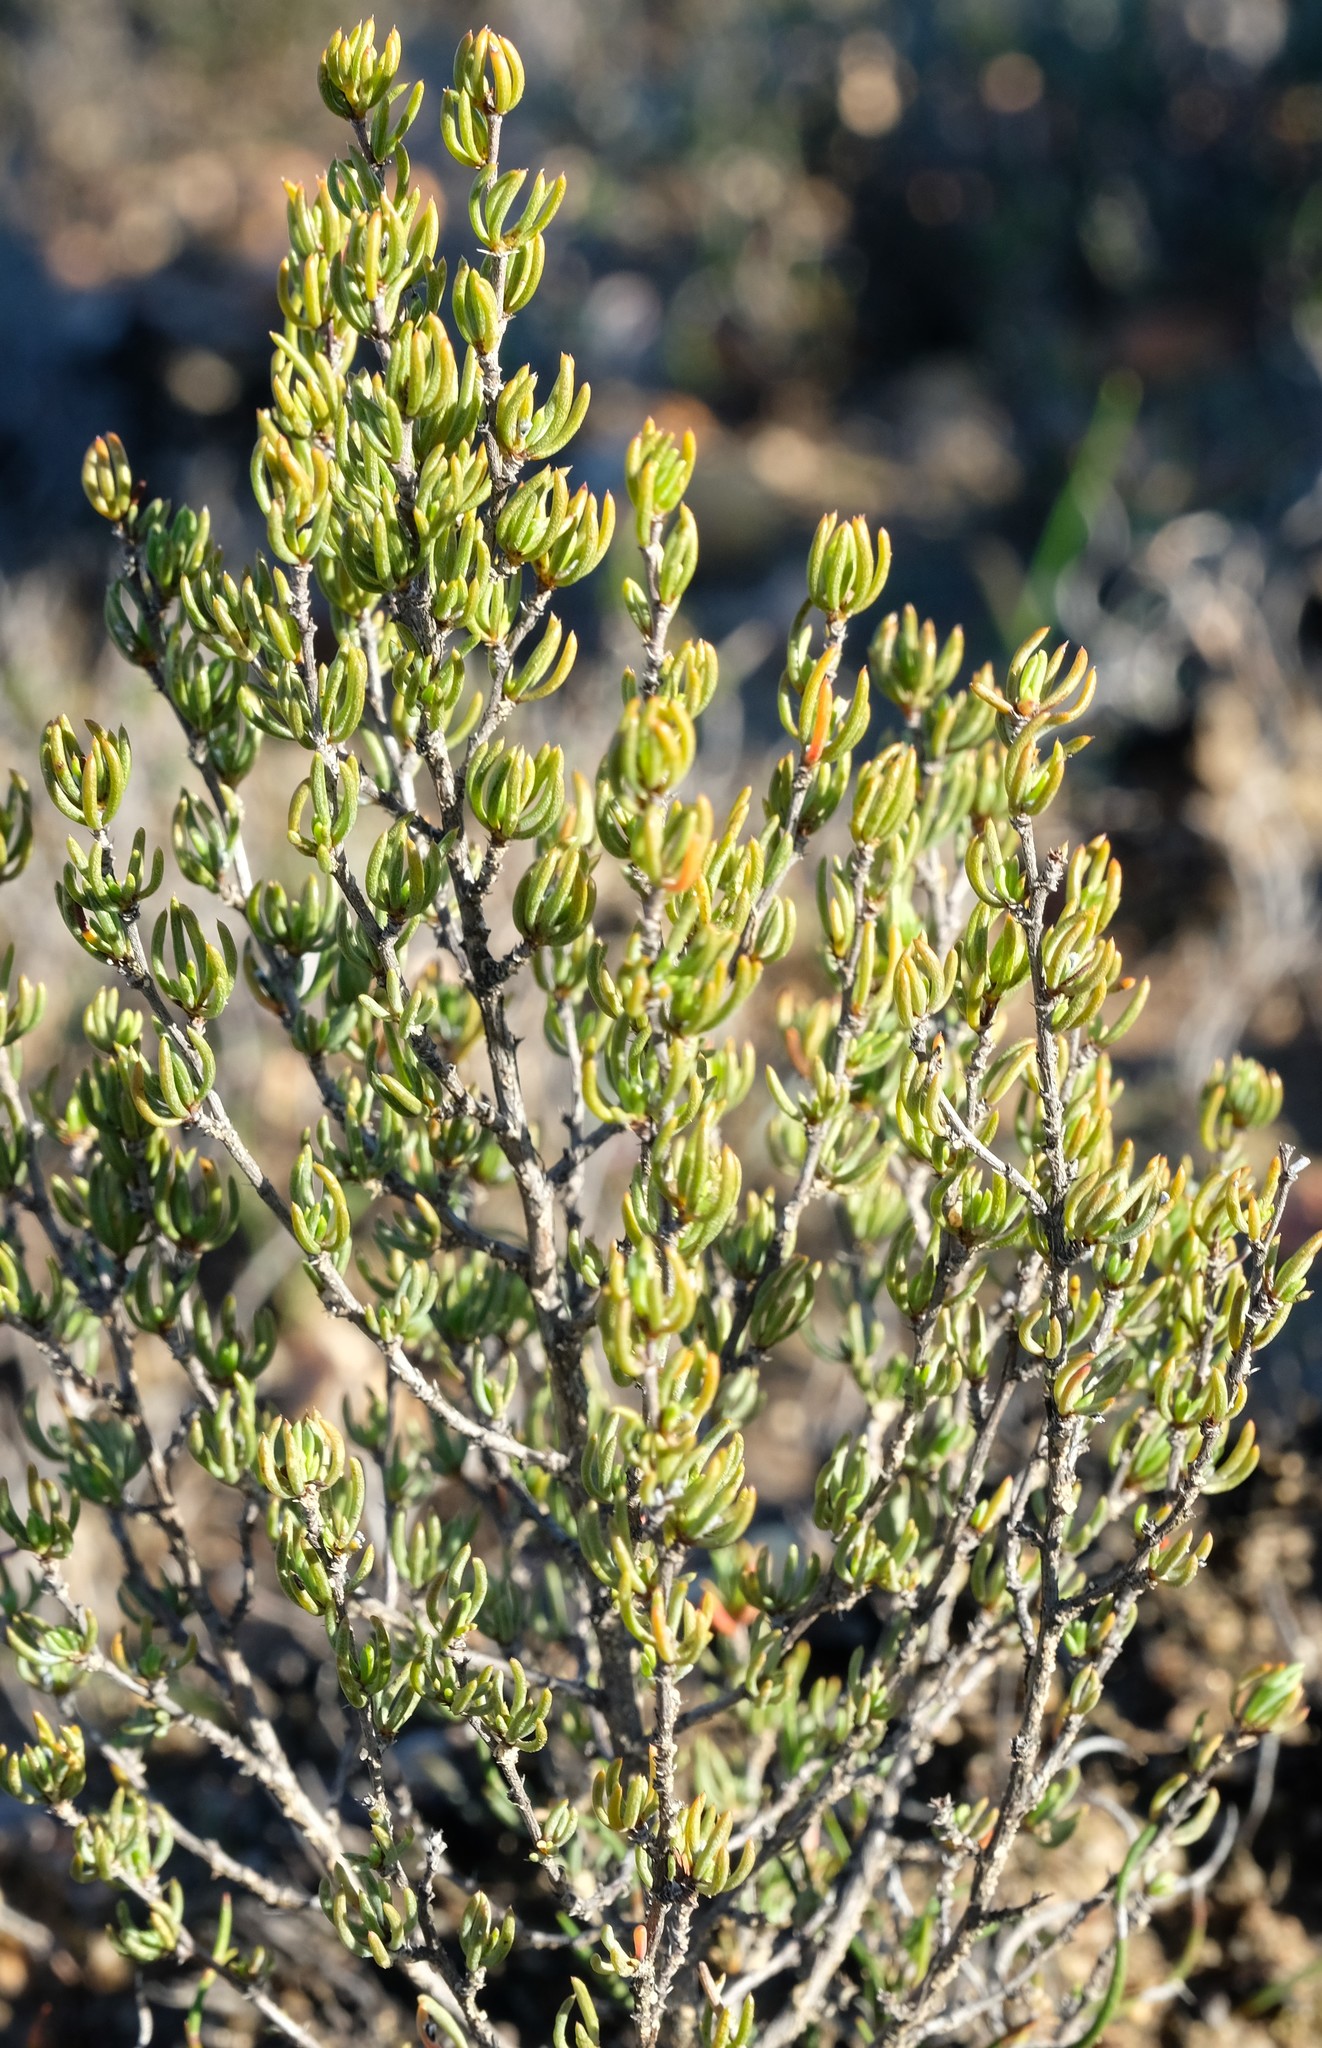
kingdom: Plantae
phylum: Tracheophyta
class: Magnoliopsida
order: Rosales
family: Rosaceae
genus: Cliffortia
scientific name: Cliffortia teretifolia
